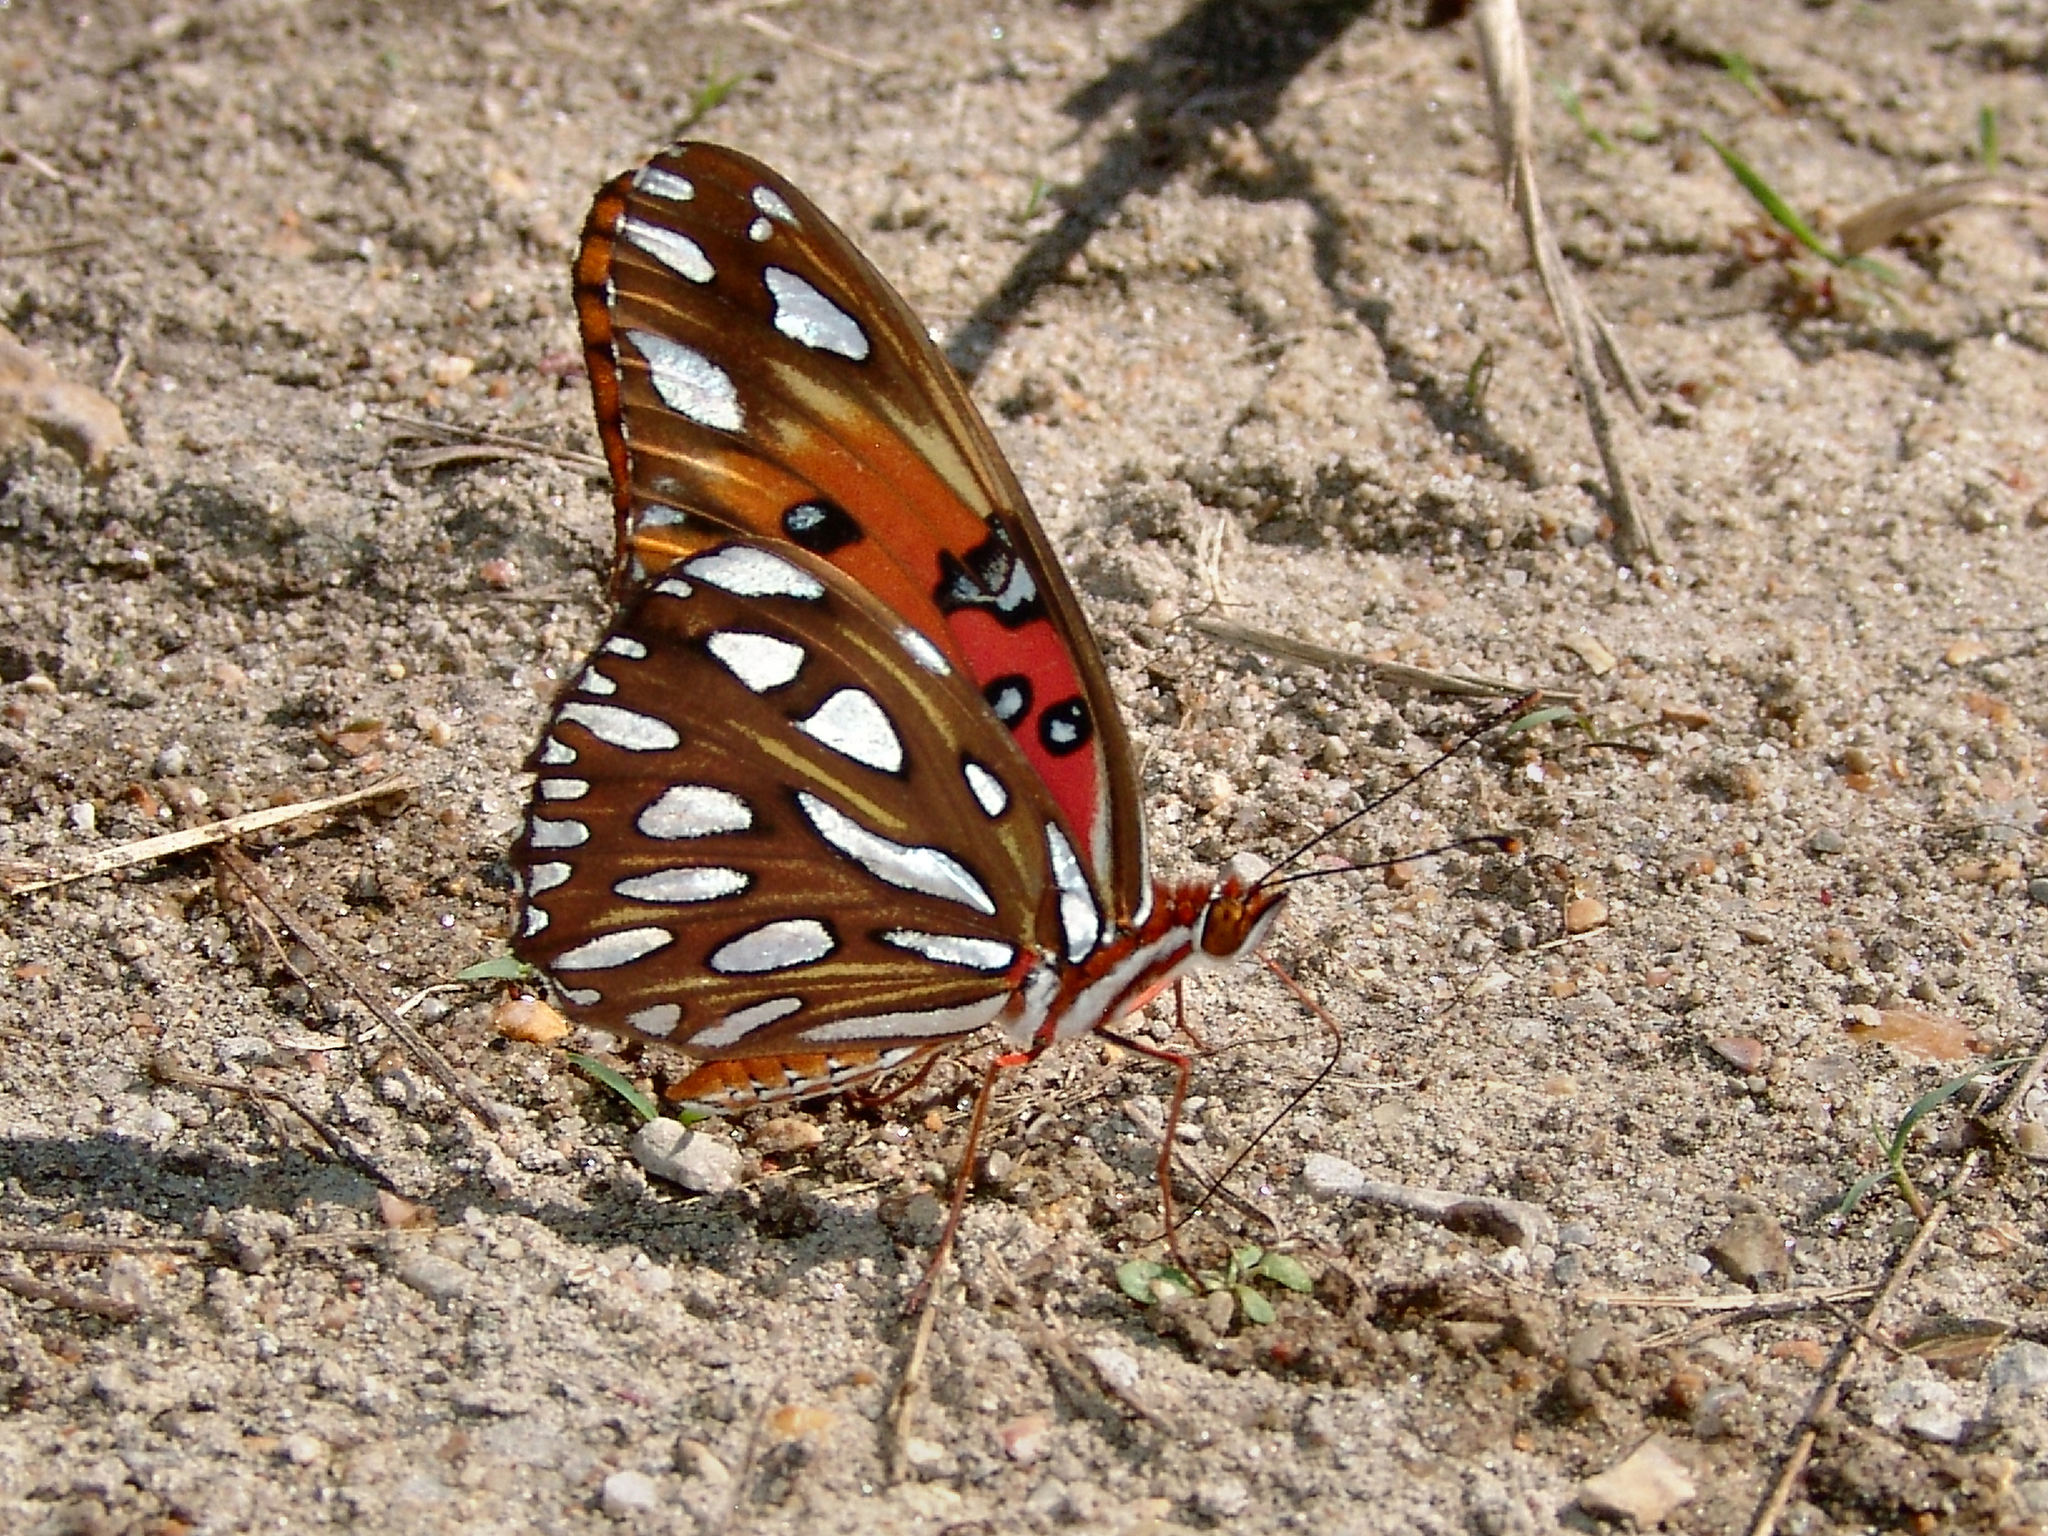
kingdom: Animalia
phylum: Arthropoda
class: Insecta
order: Lepidoptera
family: Nymphalidae
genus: Dione
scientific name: Dione vanillae
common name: Gulf fritillary
